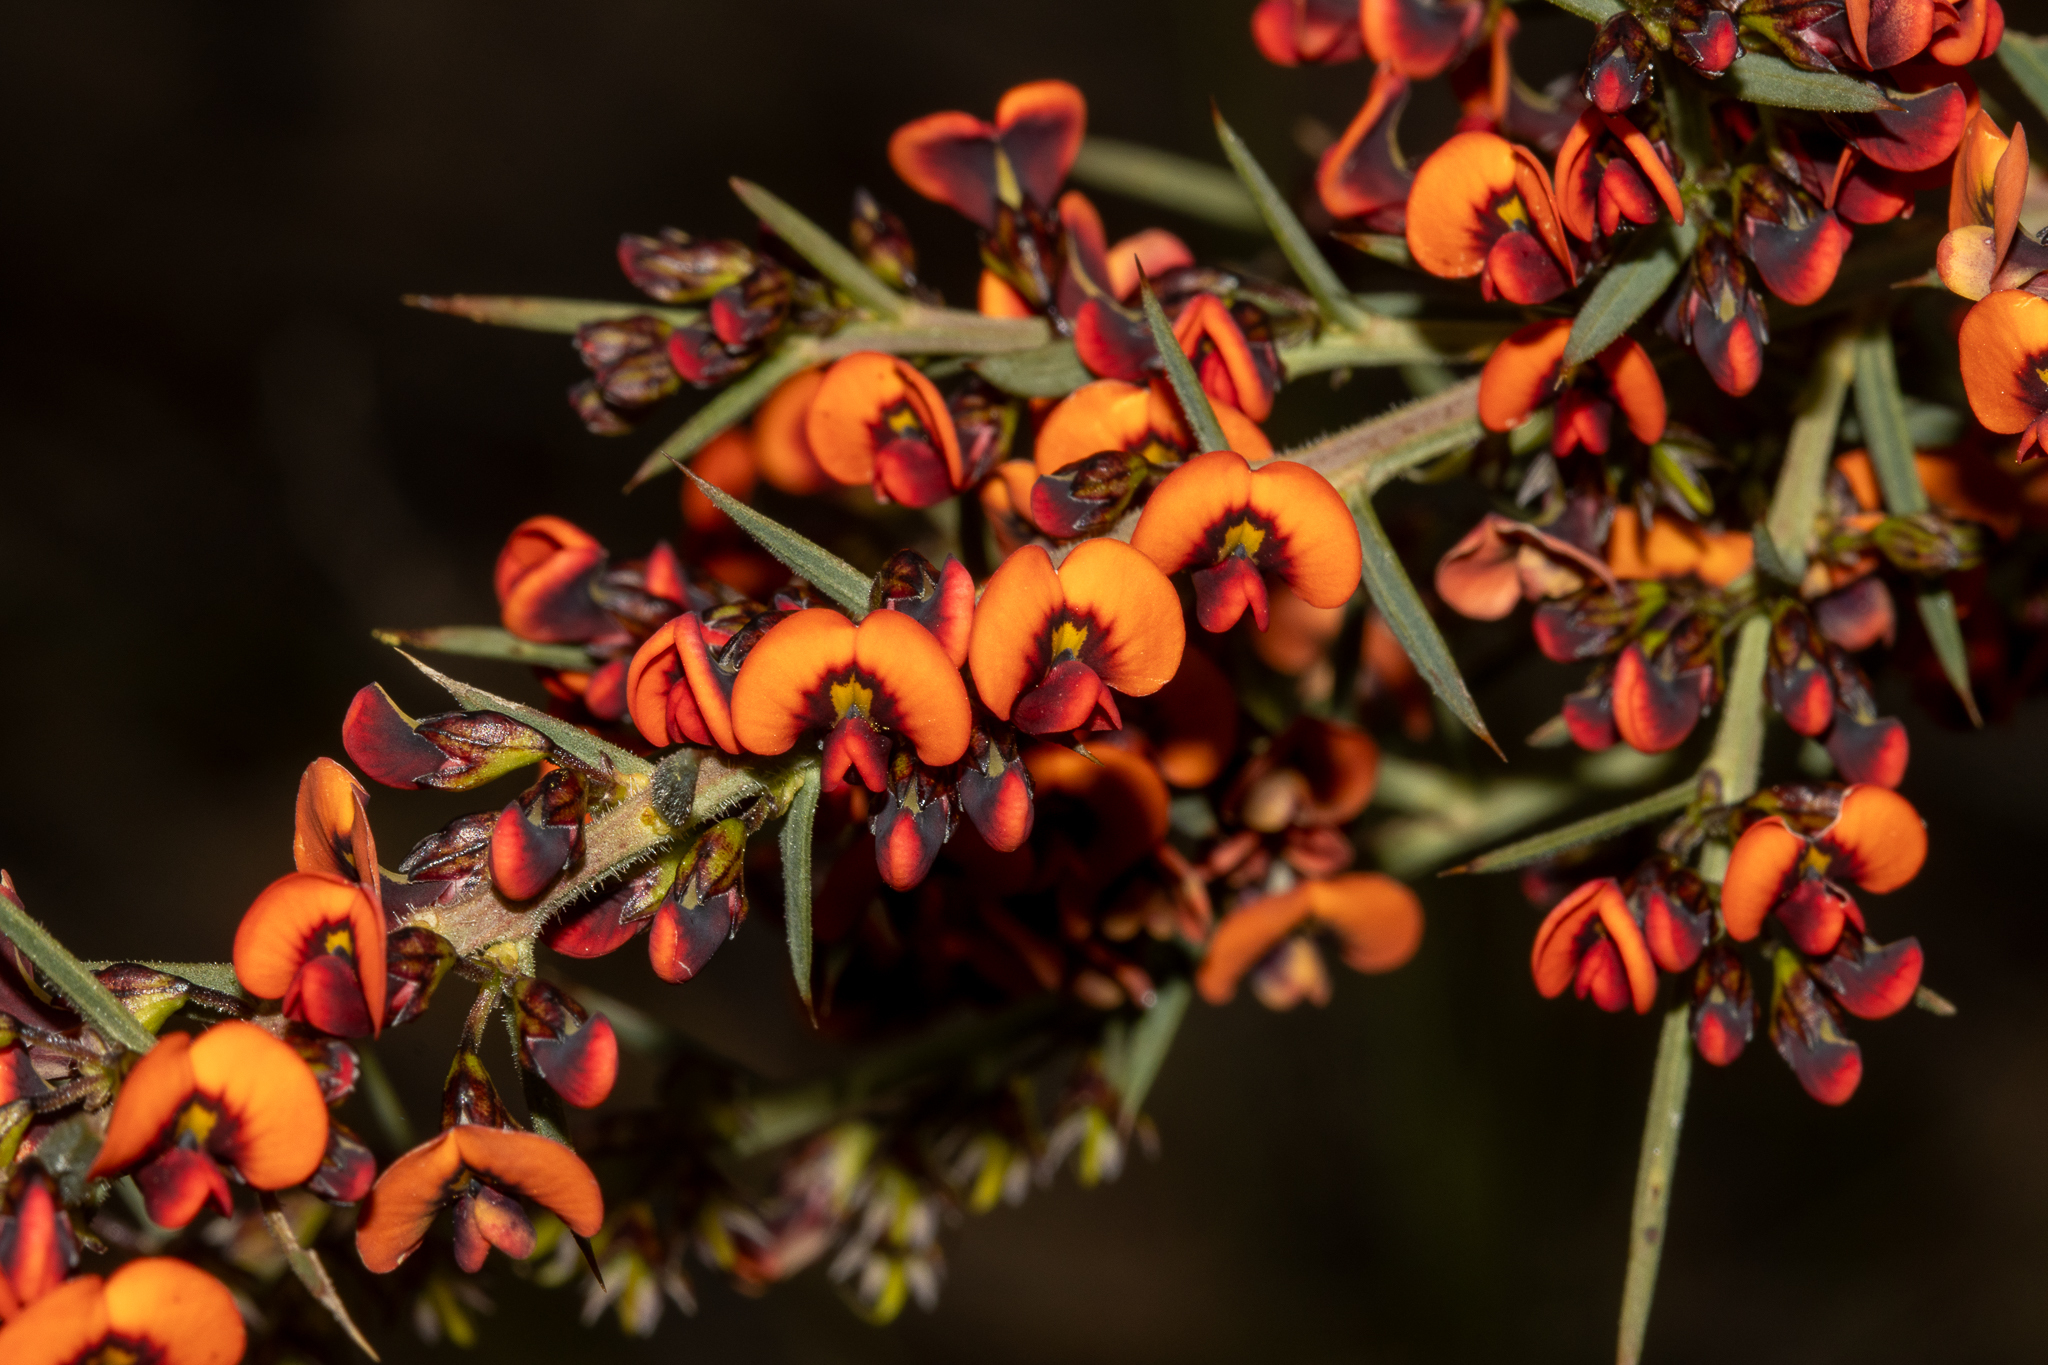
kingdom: Plantae
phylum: Tracheophyta
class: Magnoliopsida
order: Fabales
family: Fabaceae
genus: Daviesia
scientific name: Daviesia ulicifolia
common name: Gorse bitter-pea
